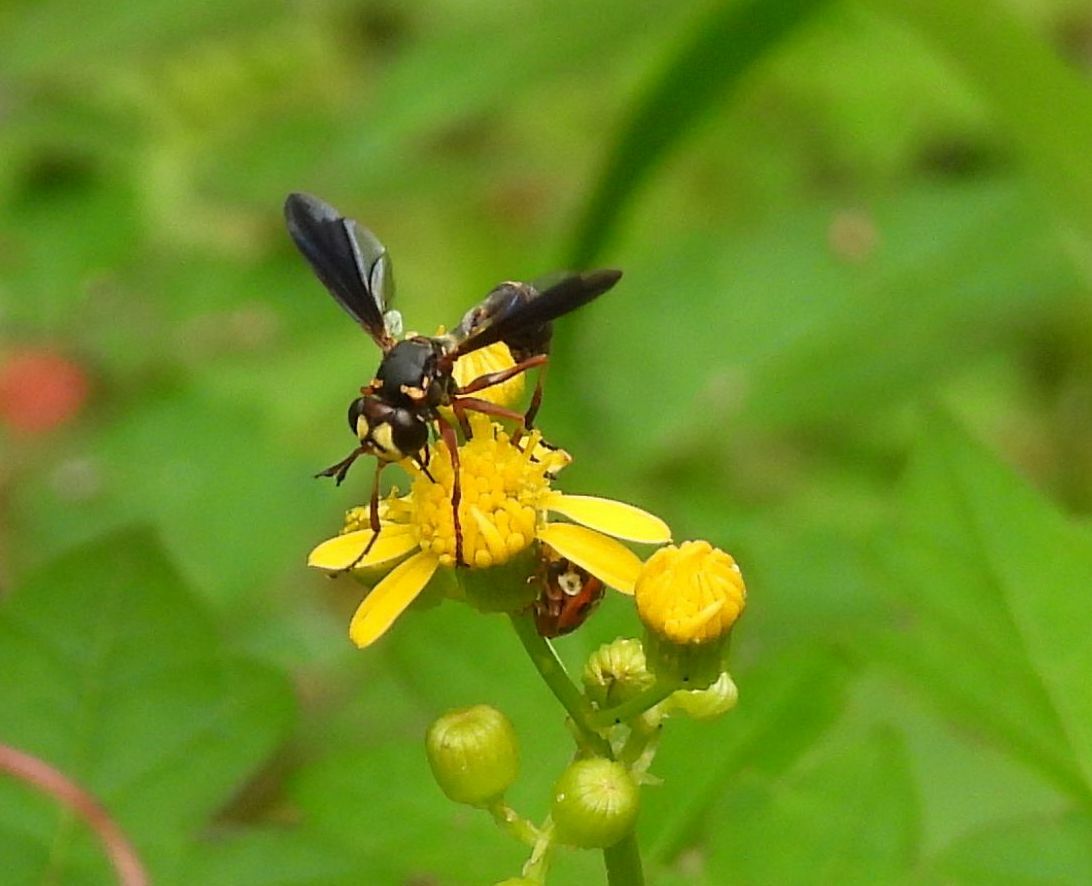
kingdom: Plantae
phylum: Tracheophyta
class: Magnoliopsida
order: Asterales
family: Asteraceae
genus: Packera
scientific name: Packera glabella
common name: Butterweed
